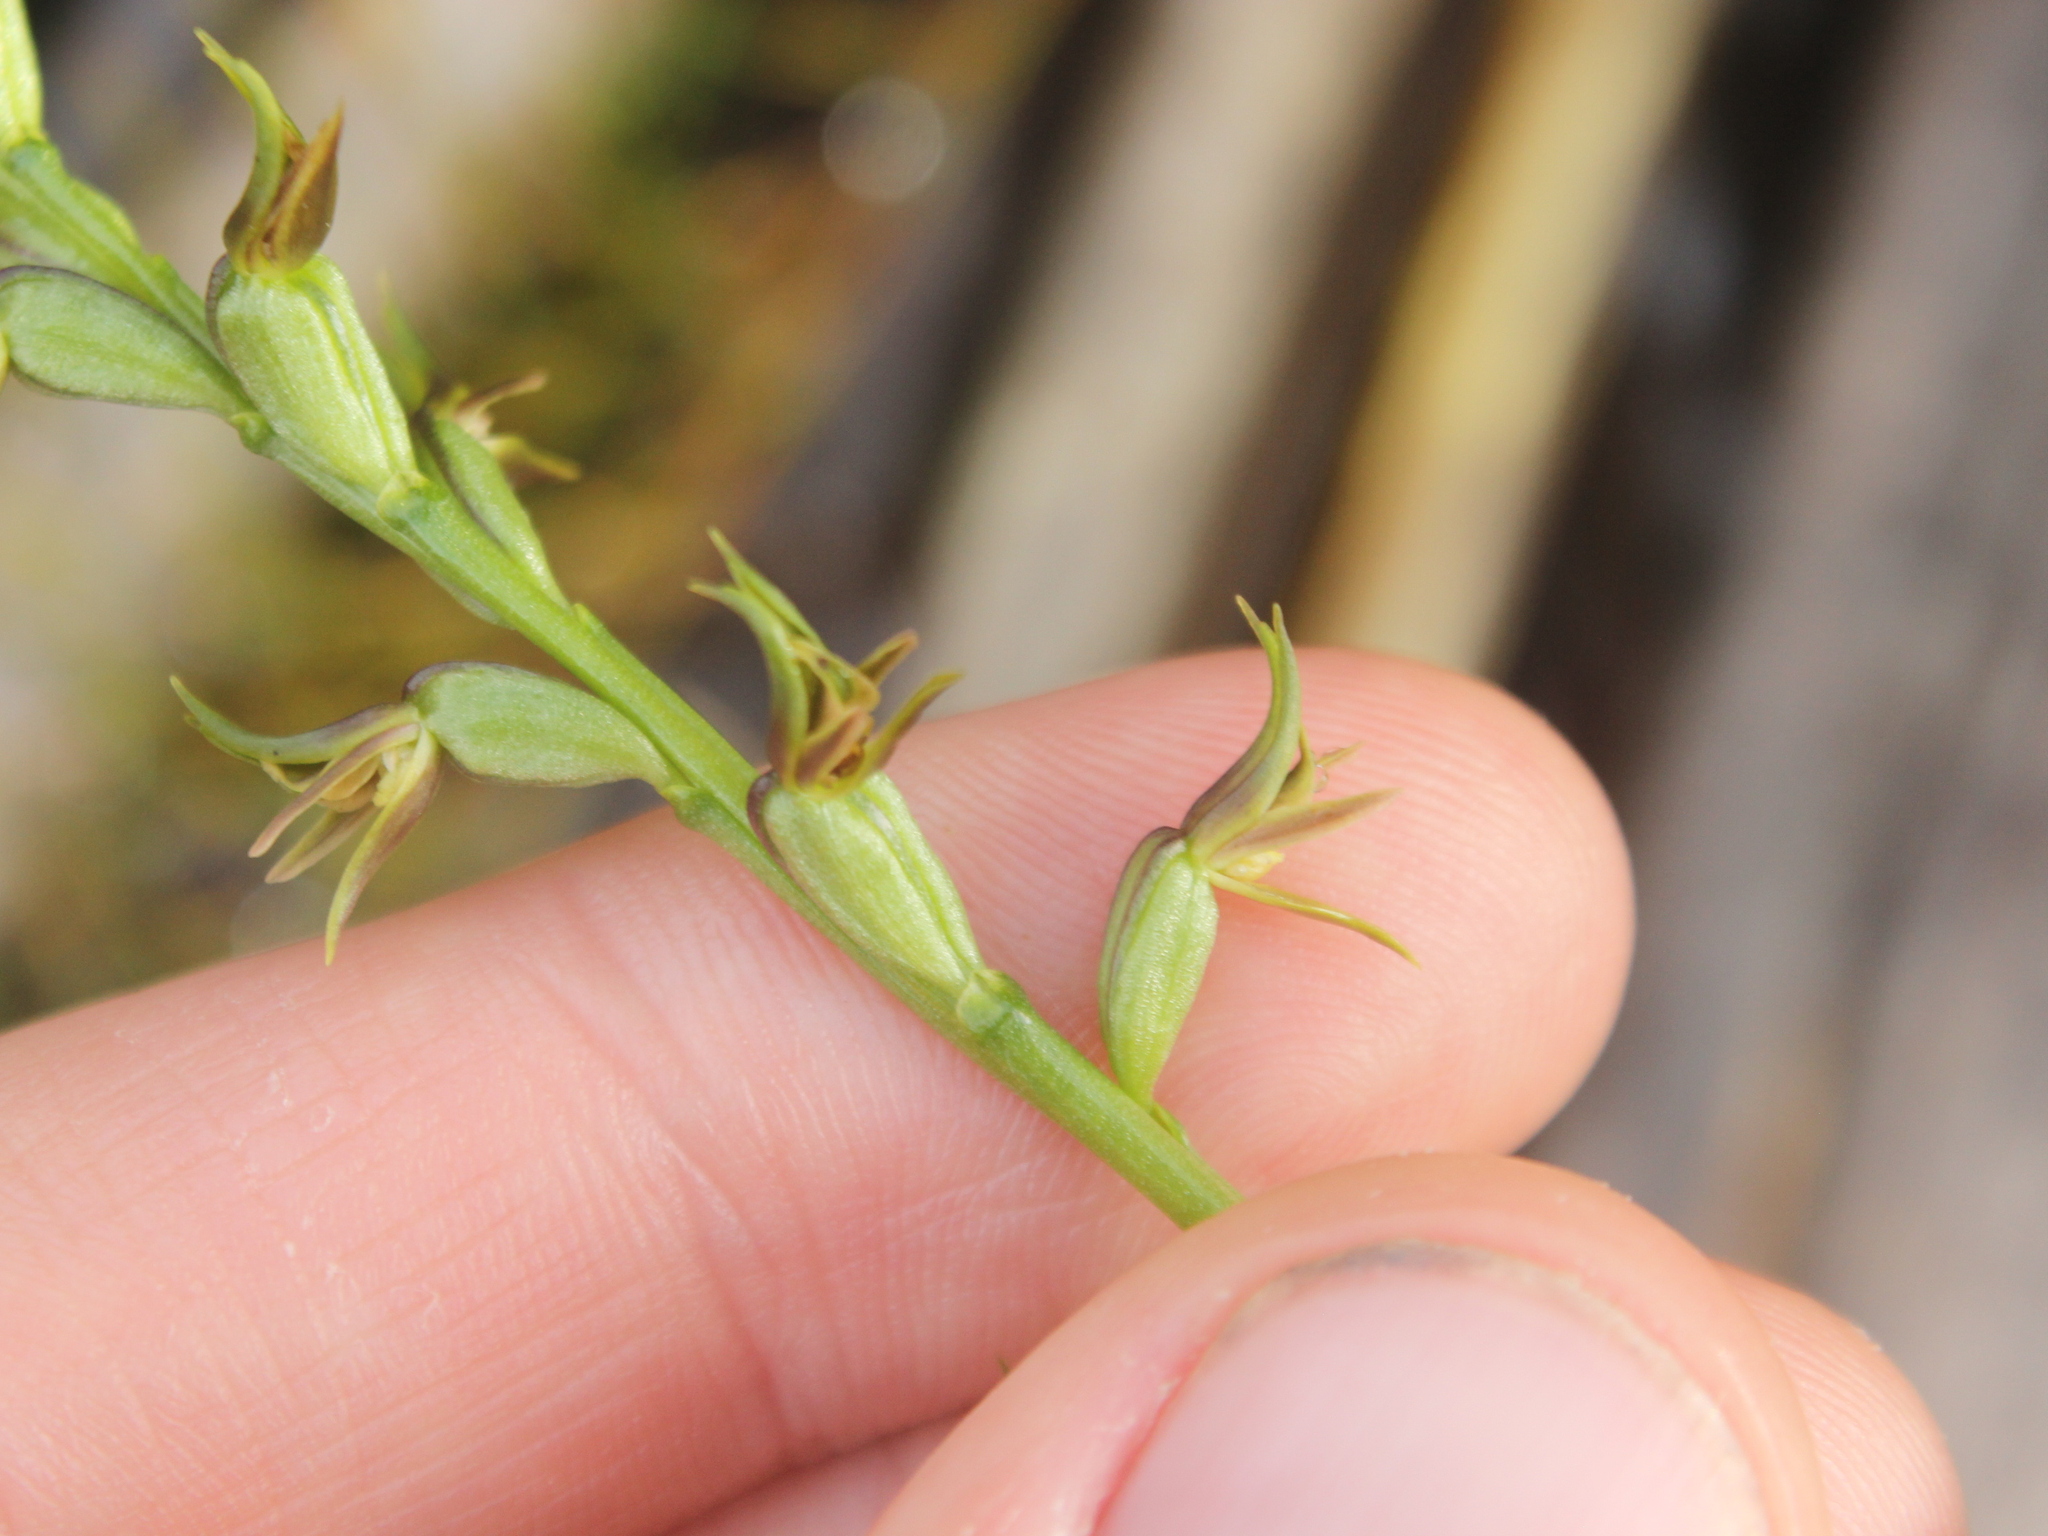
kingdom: Plantae
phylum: Tracheophyta
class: Liliopsida
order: Asparagales
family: Orchidaceae
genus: Prasophyllum
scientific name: Prasophyllum colensoi
